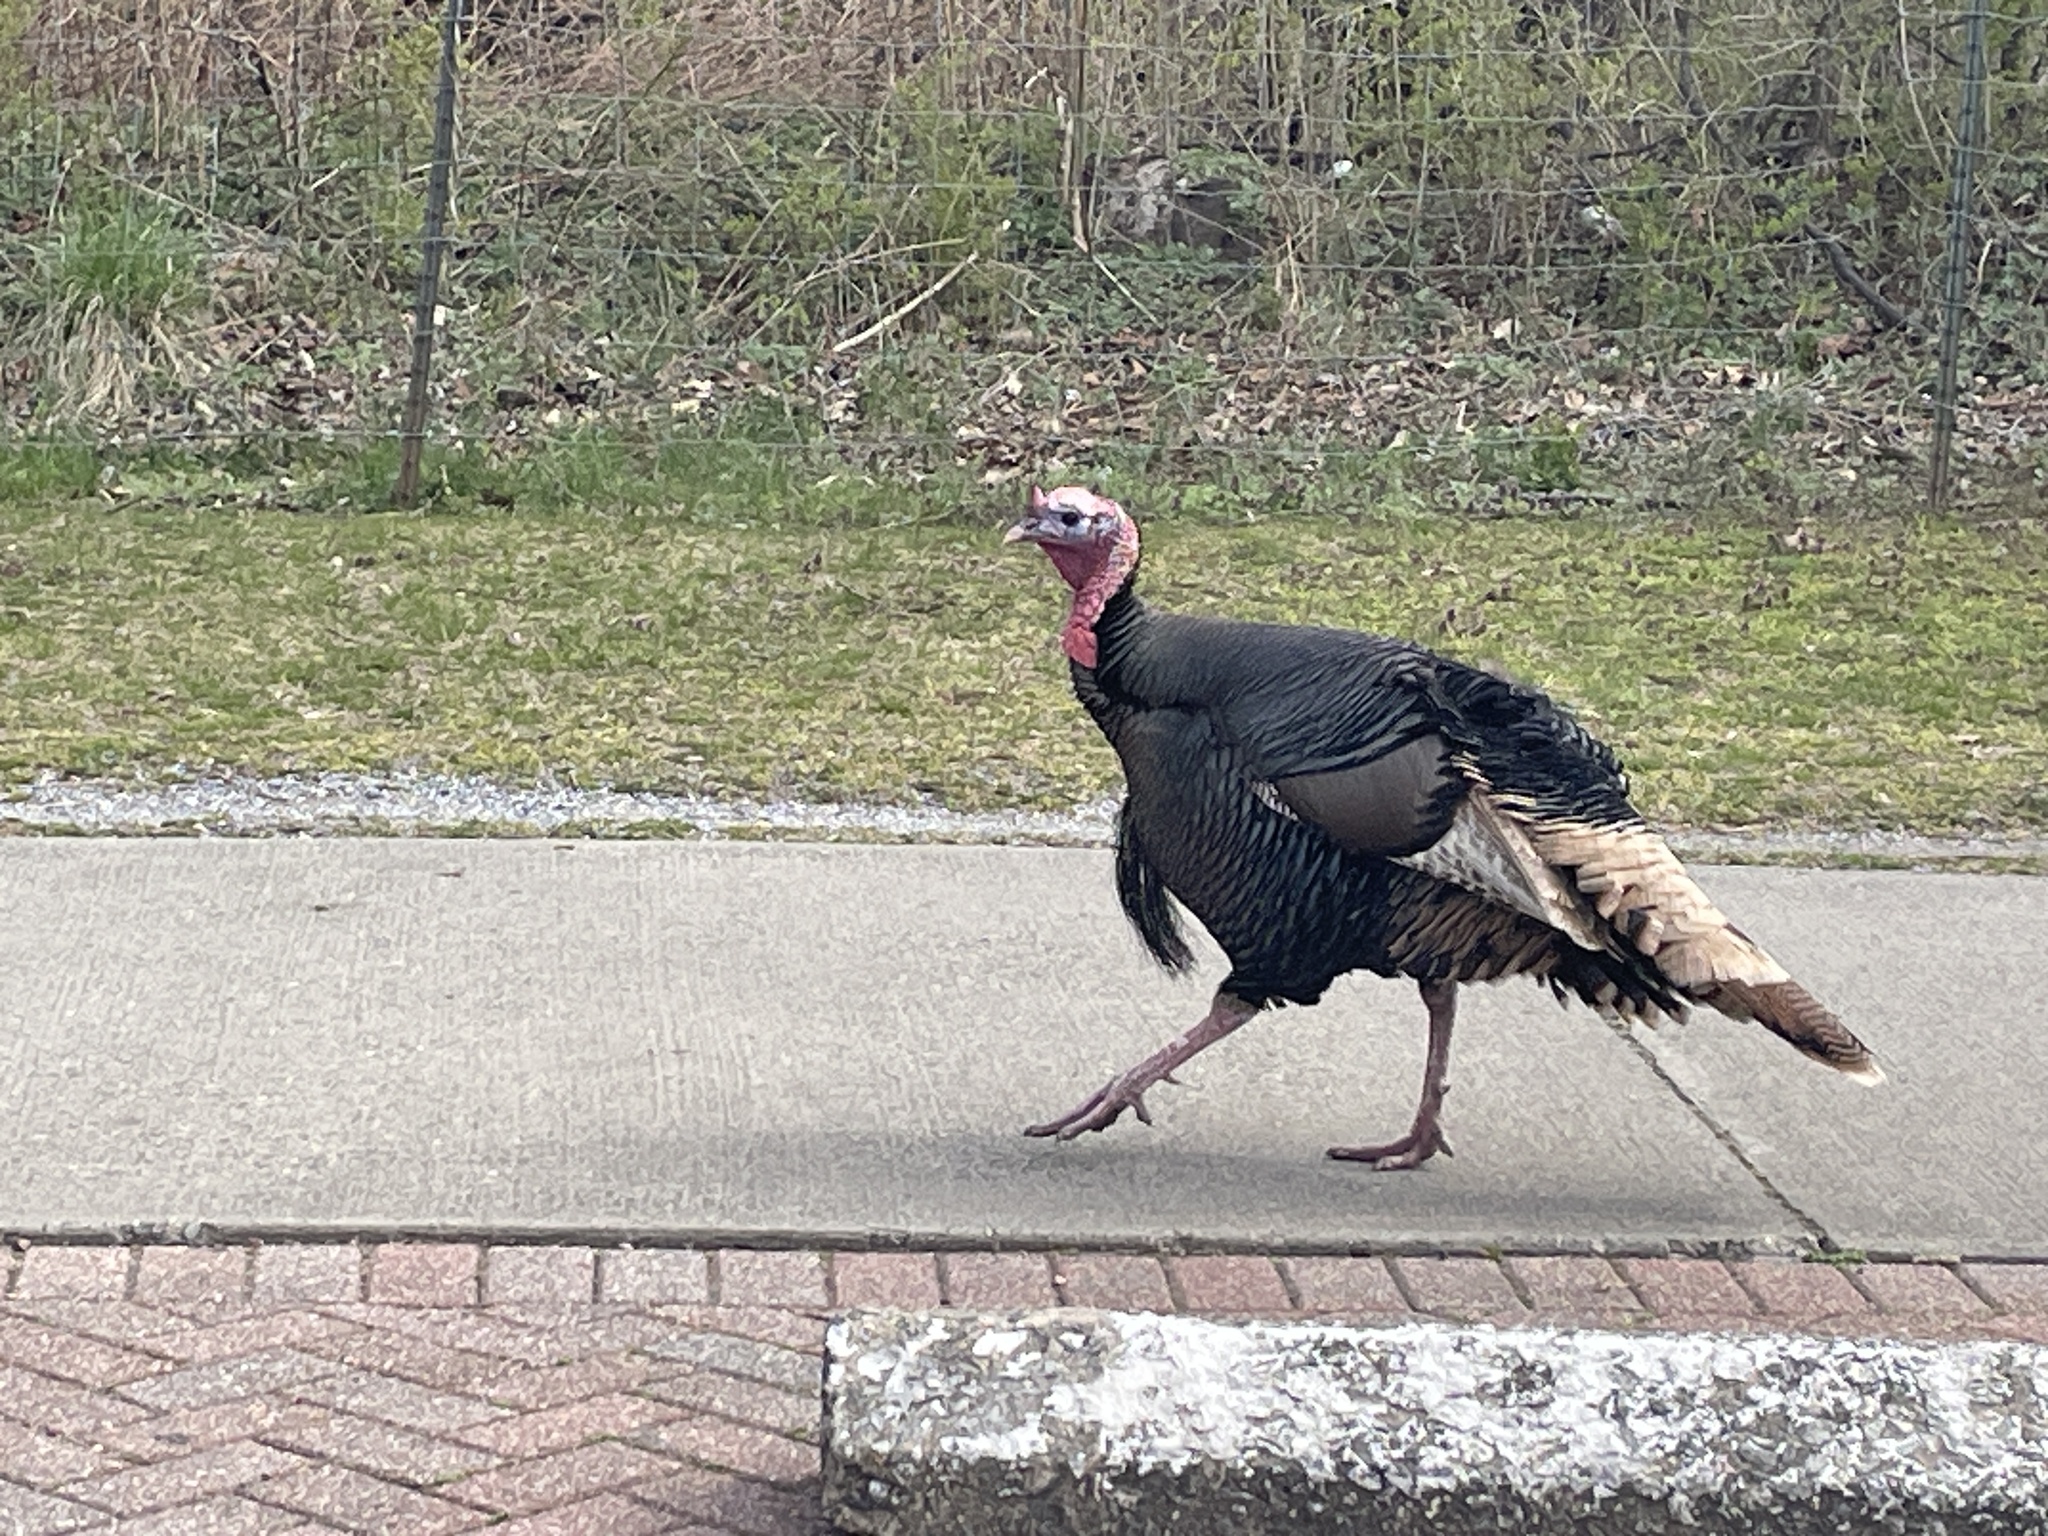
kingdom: Animalia
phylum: Chordata
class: Aves
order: Galliformes
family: Phasianidae
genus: Meleagris
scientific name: Meleagris gallopavo
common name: Wild turkey
